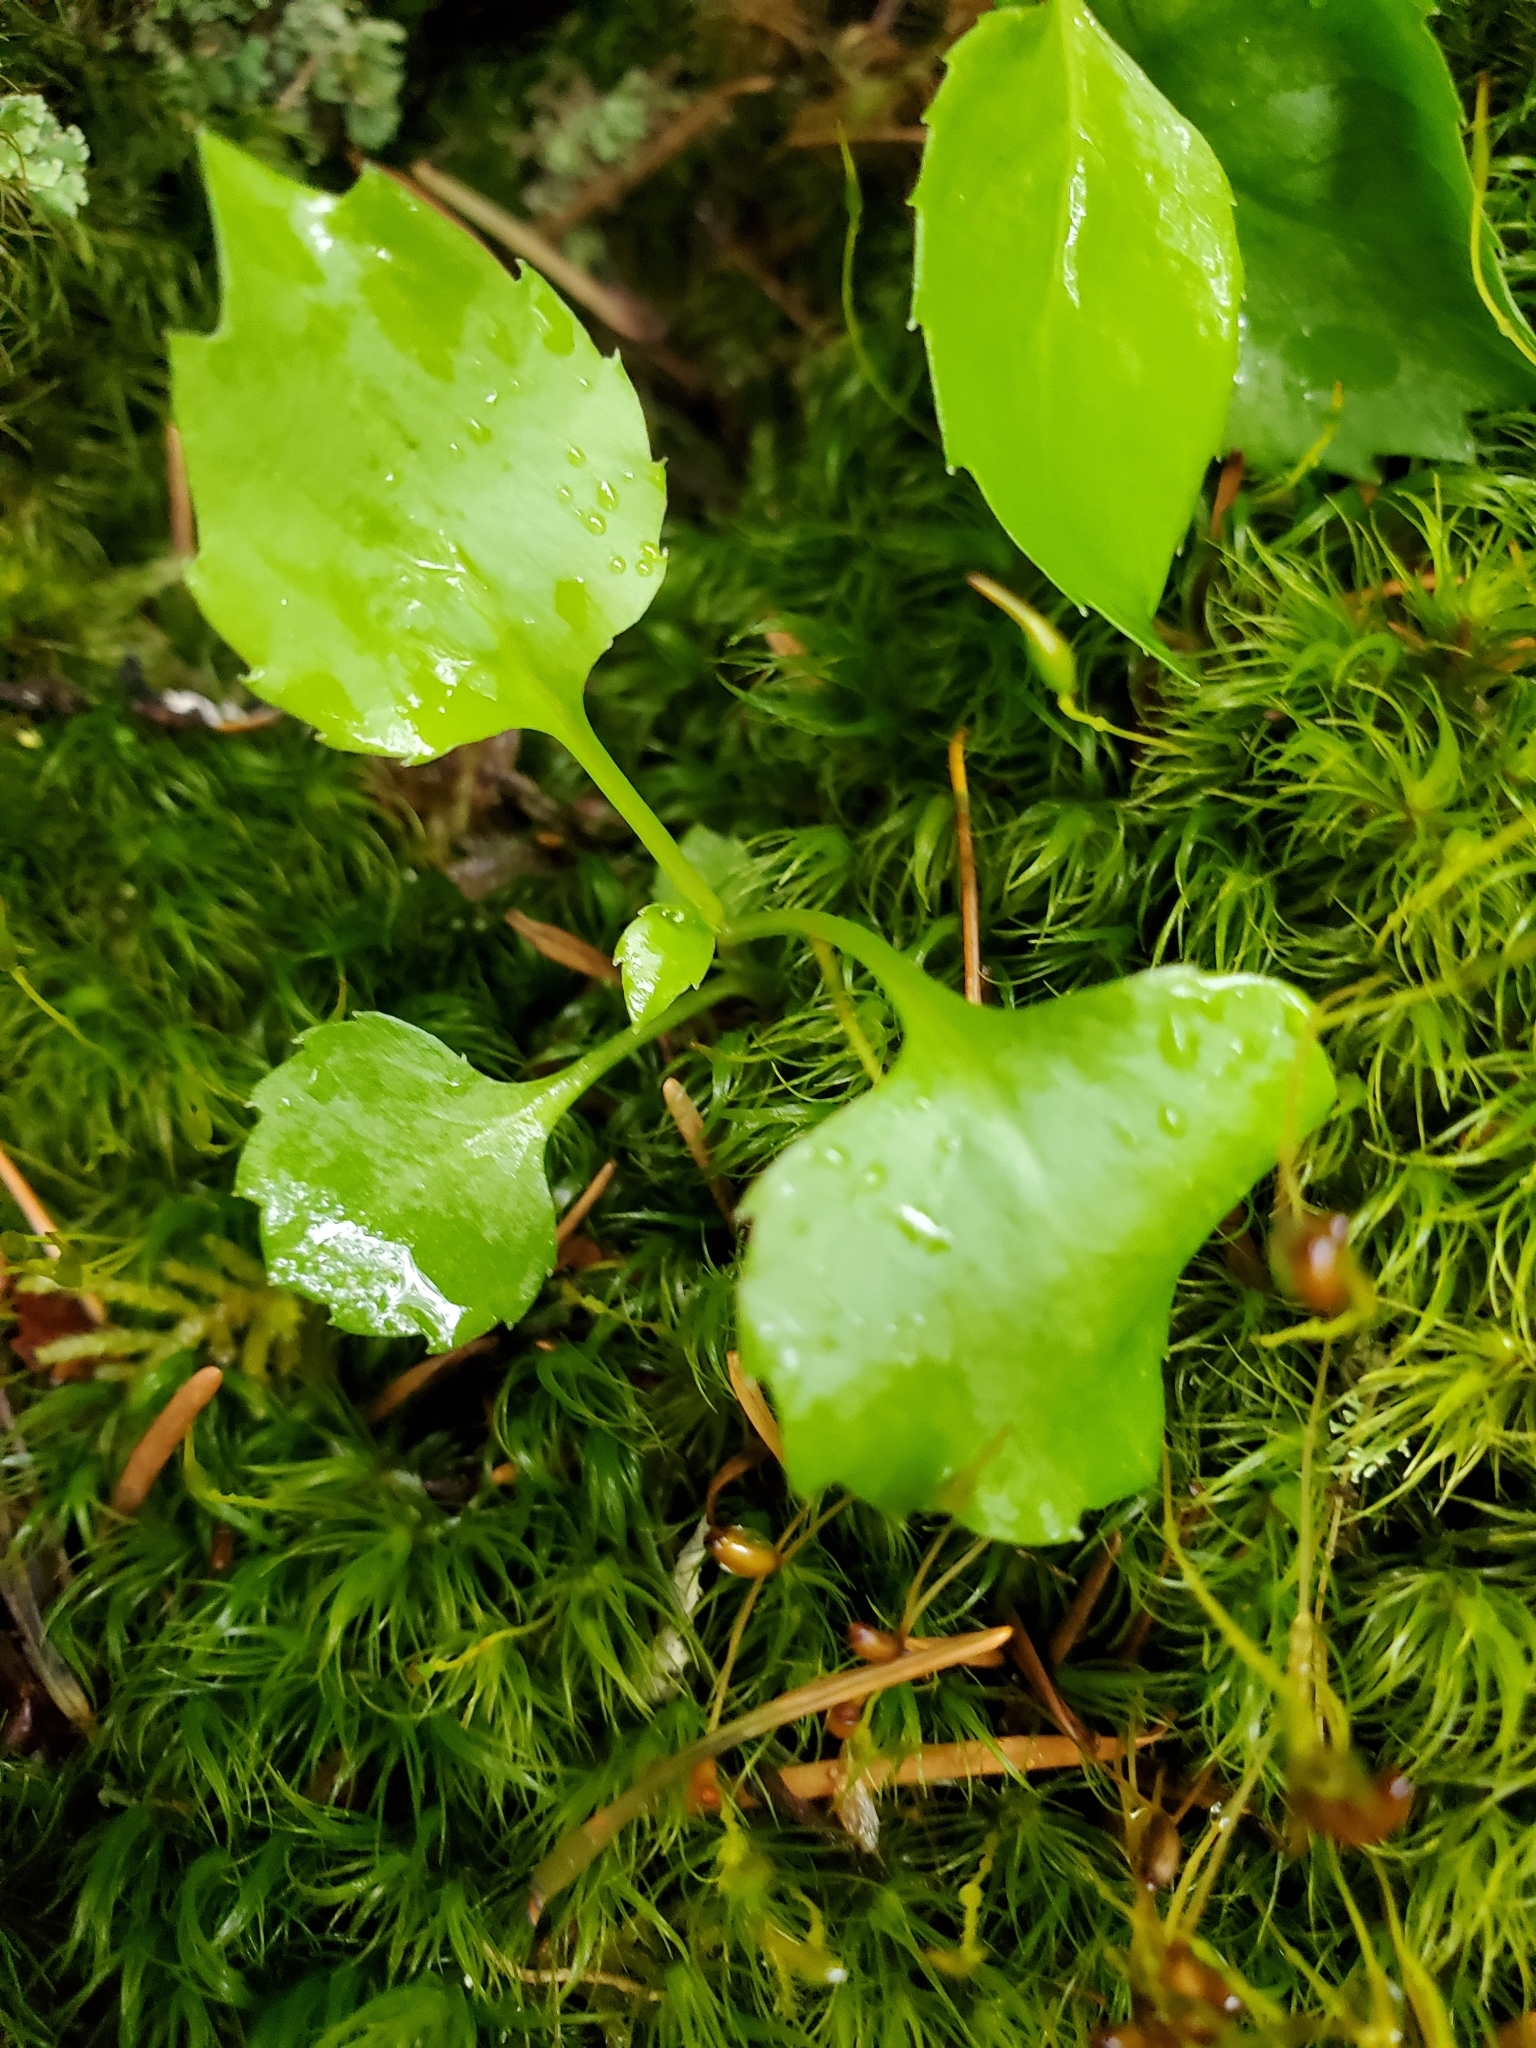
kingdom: Plantae
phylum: Tracheophyta
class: Magnoliopsida
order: Asterales
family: Campanulaceae
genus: Campanula
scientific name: Campanula scouleri
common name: Scouler's harebell
